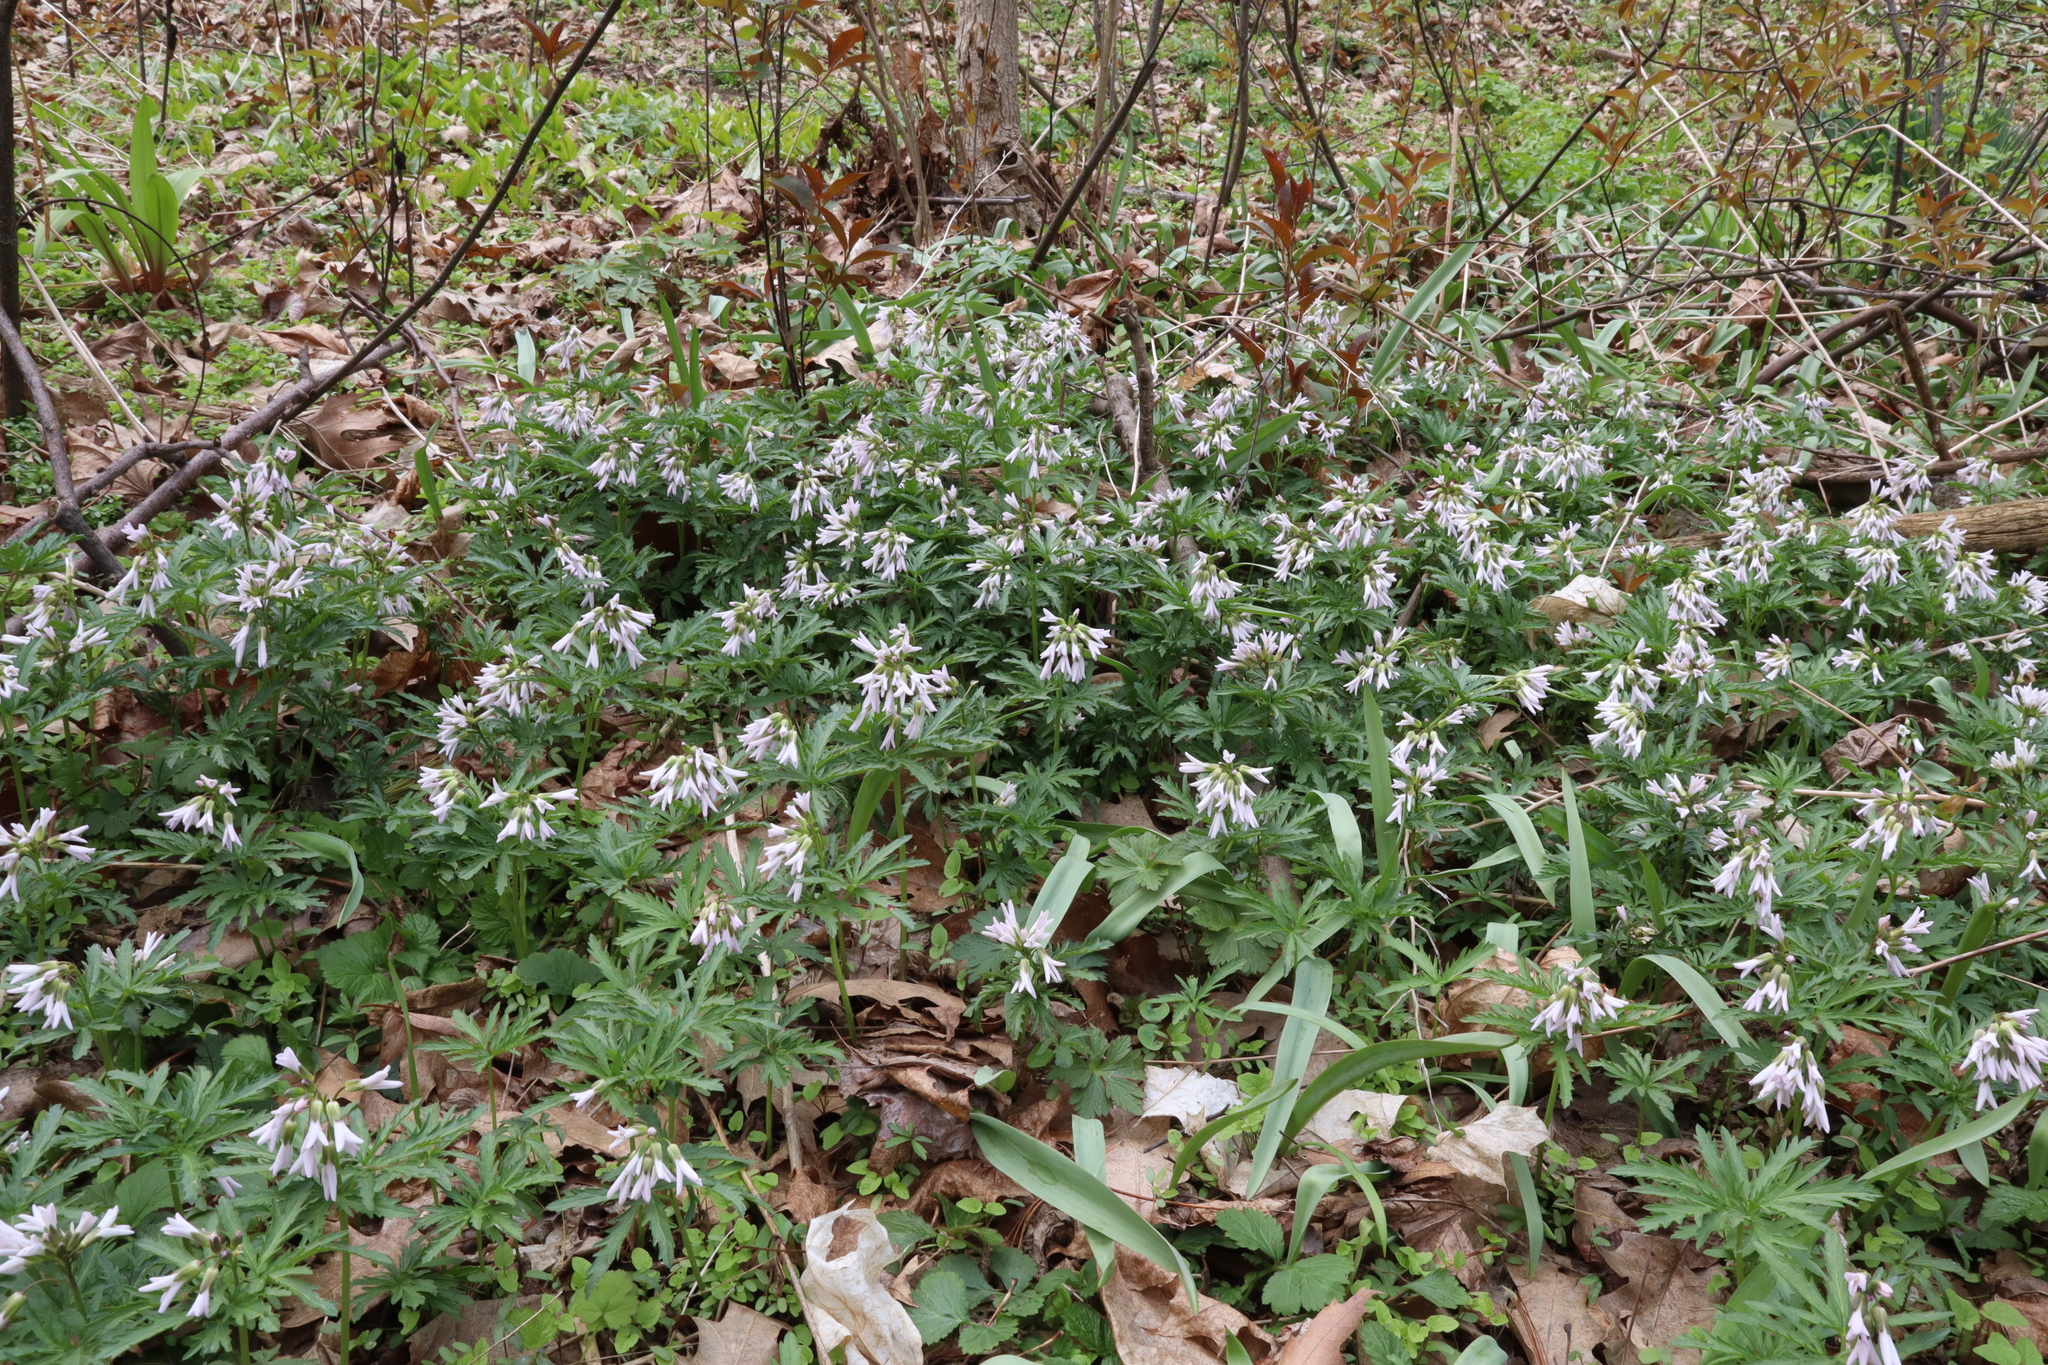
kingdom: Plantae
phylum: Tracheophyta
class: Magnoliopsida
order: Brassicales
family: Brassicaceae
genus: Cardamine
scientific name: Cardamine concatenata
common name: Cut-leaf toothcup
